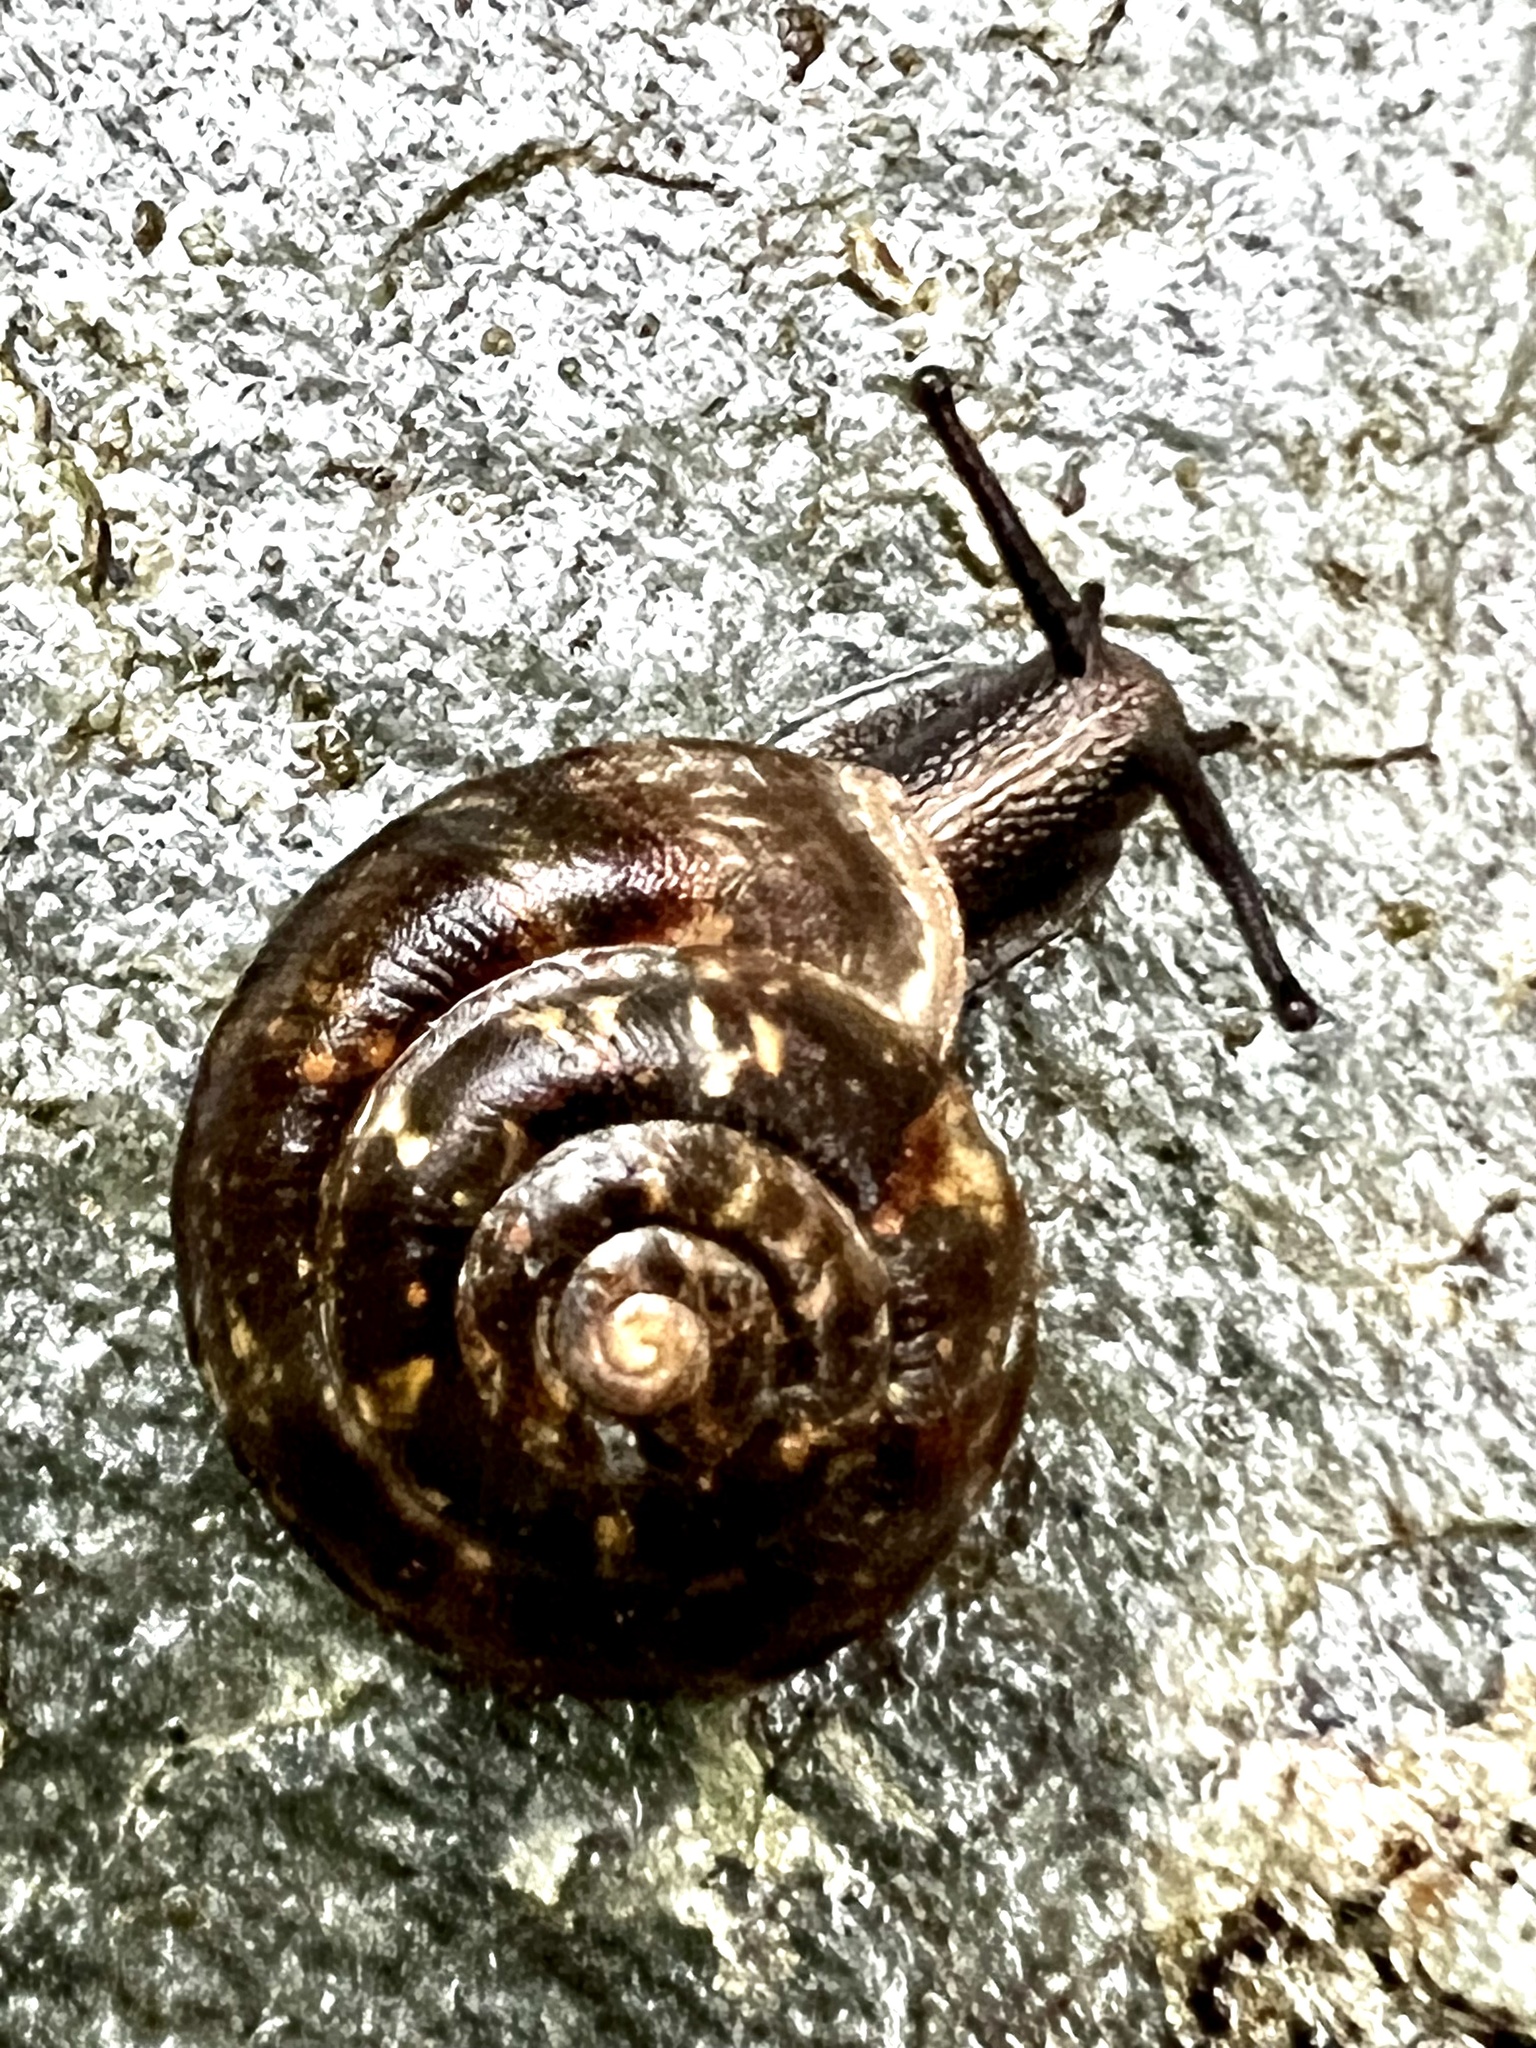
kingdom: Animalia
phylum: Mollusca
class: Gastropoda
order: Stylommatophora
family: Helicidae
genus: Helicigona
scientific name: Helicigona lapicida
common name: Lapidary snail
